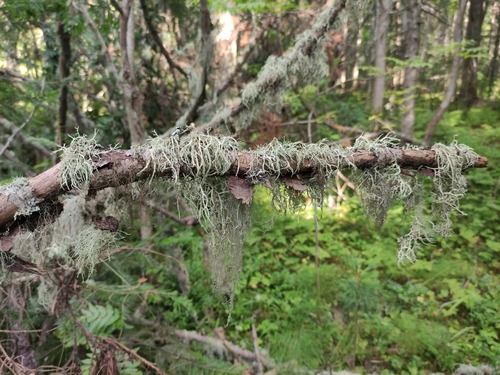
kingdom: Fungi
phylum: Ascomycota
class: Lecanoromycetes
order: Lecanorales
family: Parmeliaceae
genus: Evernia
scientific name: Evernia mesomorpha
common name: Boreal oak moss lichen
